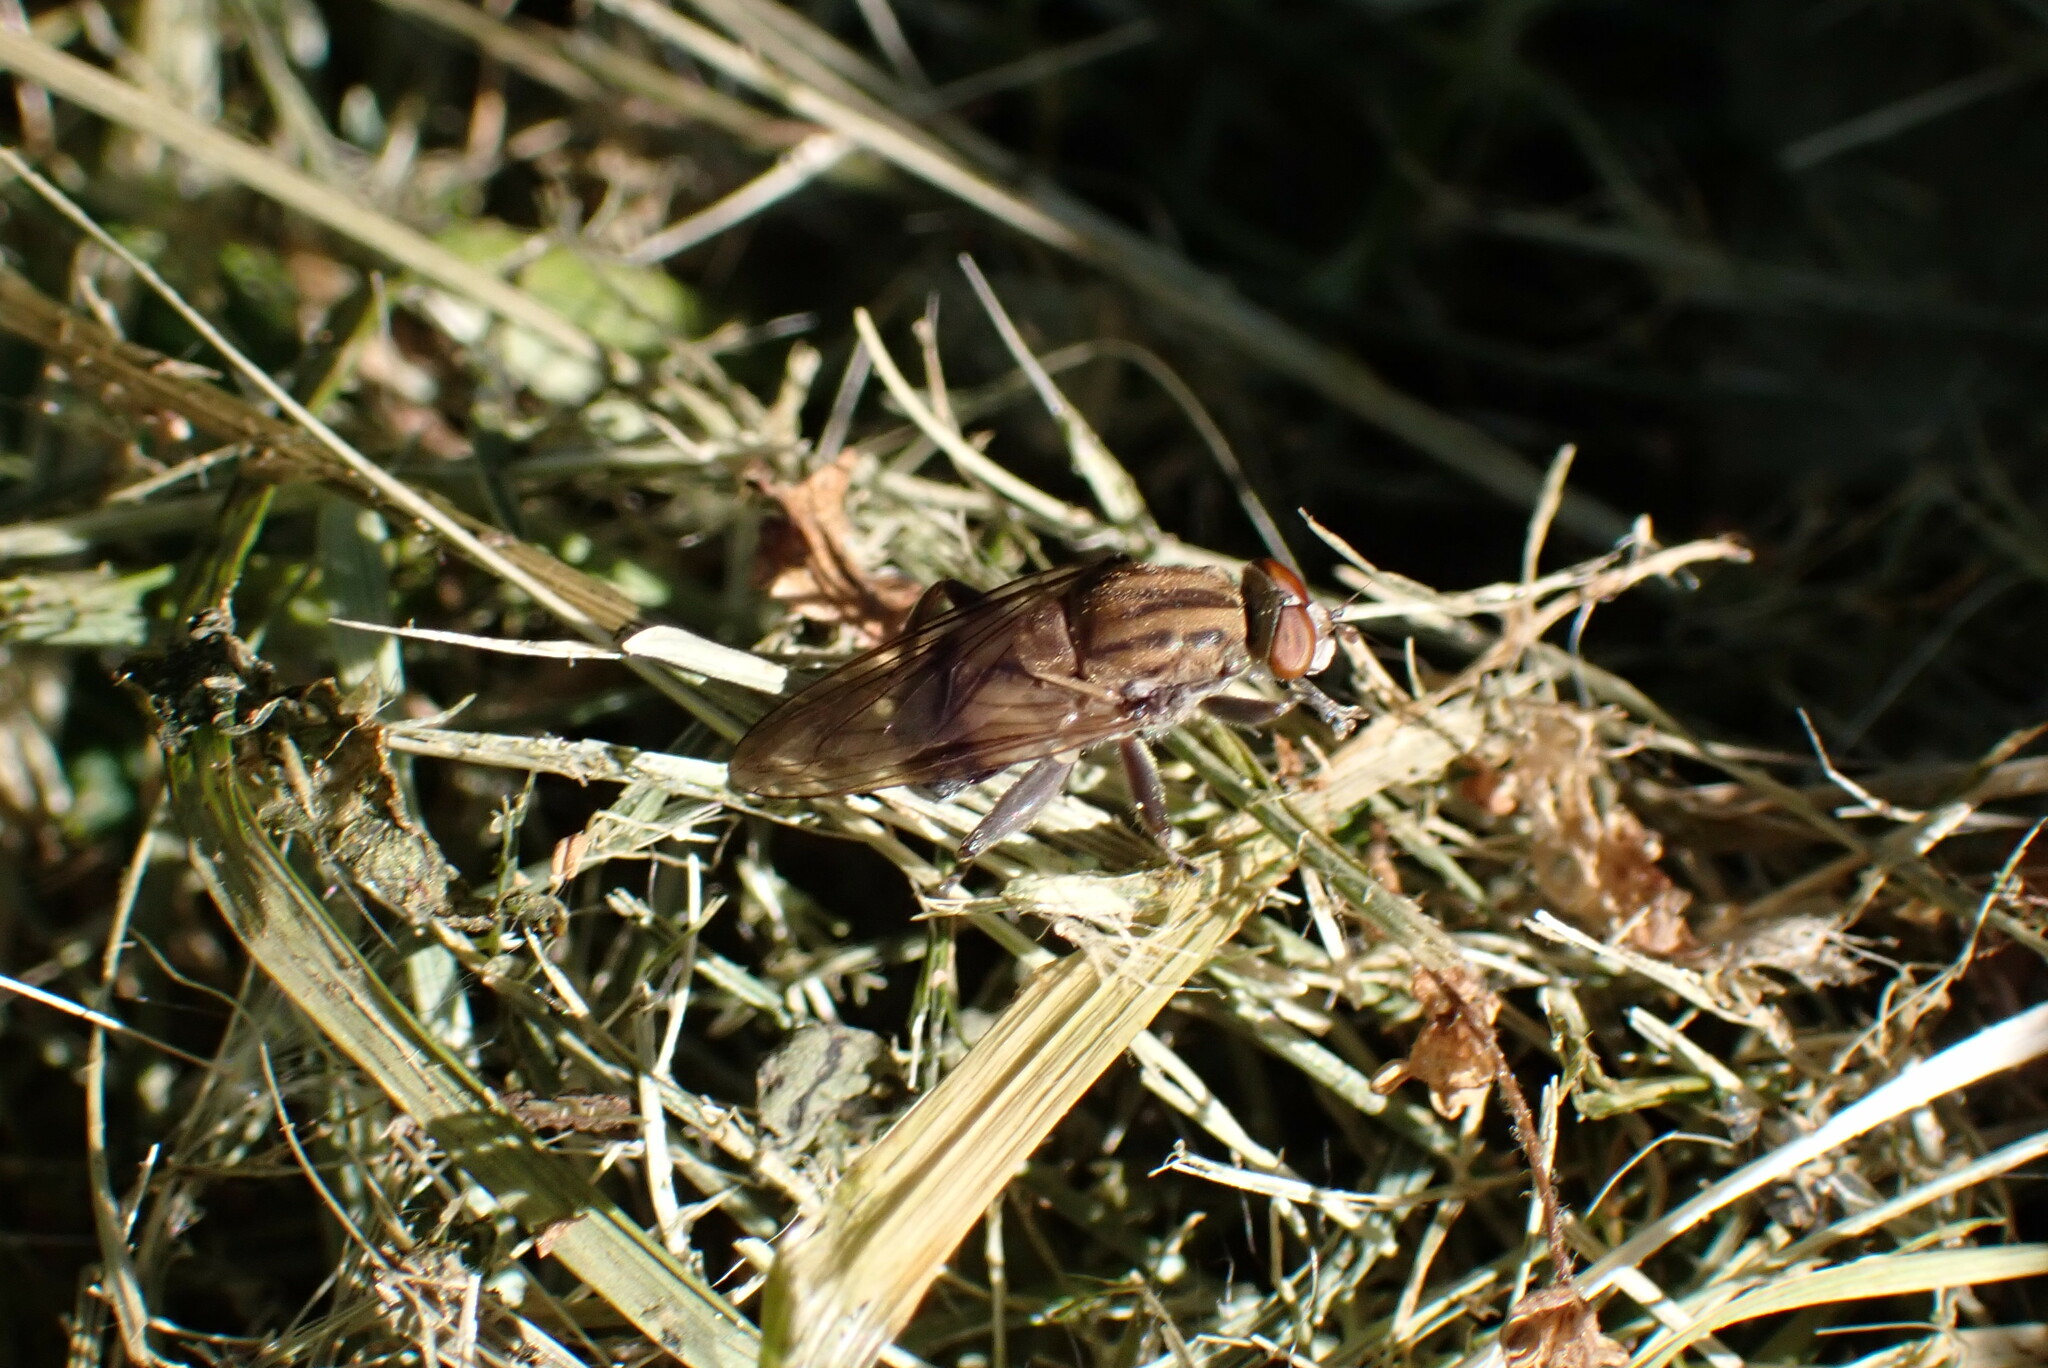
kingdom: Animalia
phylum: Arthropoda
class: Insecta
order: Diptera
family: Syrphidae
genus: Brachyopa
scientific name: Brachyopa vacua
